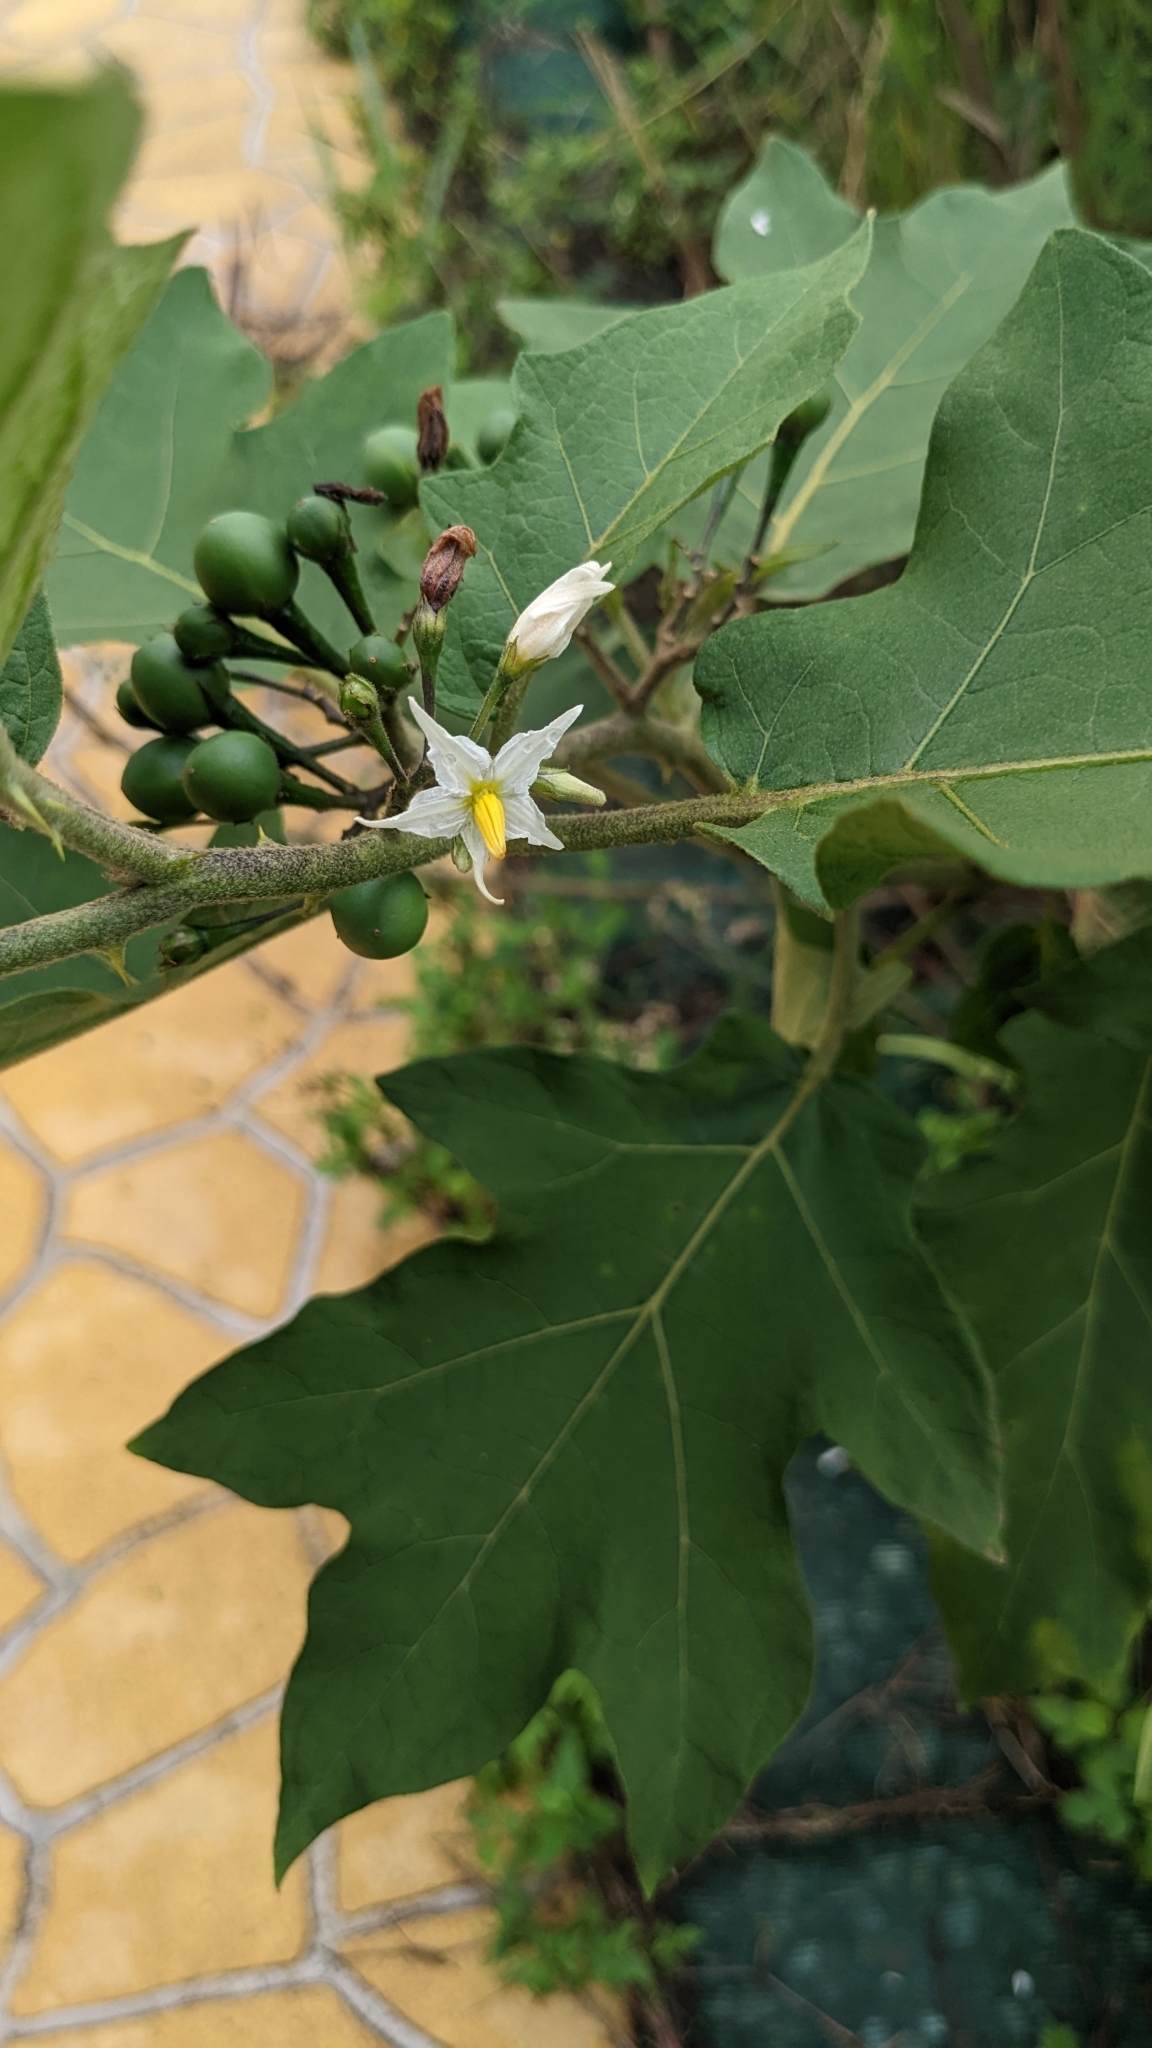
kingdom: Plantae
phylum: Tracheophyta
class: Magnoliopsida
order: Solanales
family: Solanaceae
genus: Solanum
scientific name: Solanum torvum
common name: Turkey berry
